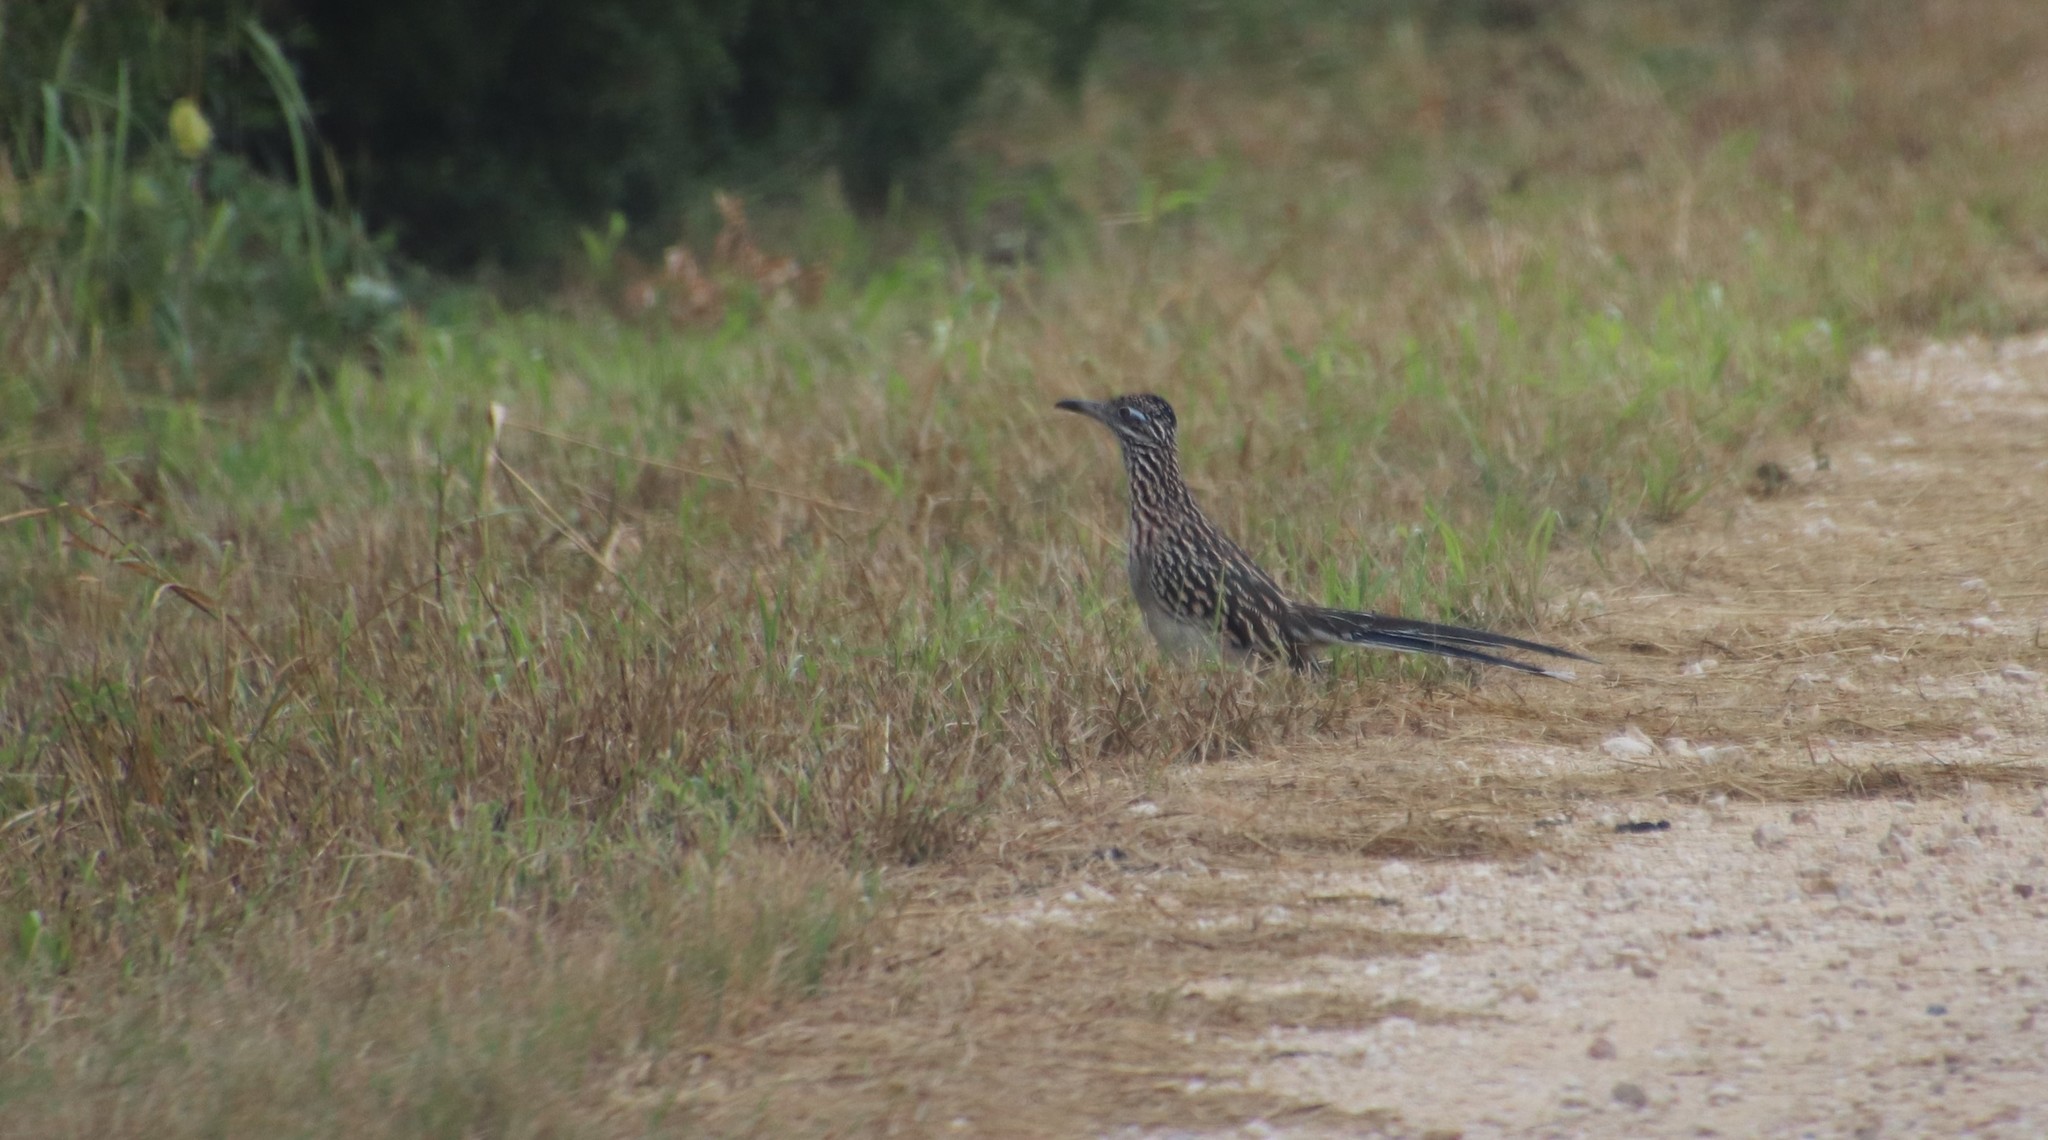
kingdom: Animalia
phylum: Chordata
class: Aves
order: Cuculiformes
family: Cuculidae
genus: Geococcyx
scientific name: Geococcyx californianus
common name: Greater roadrunner
